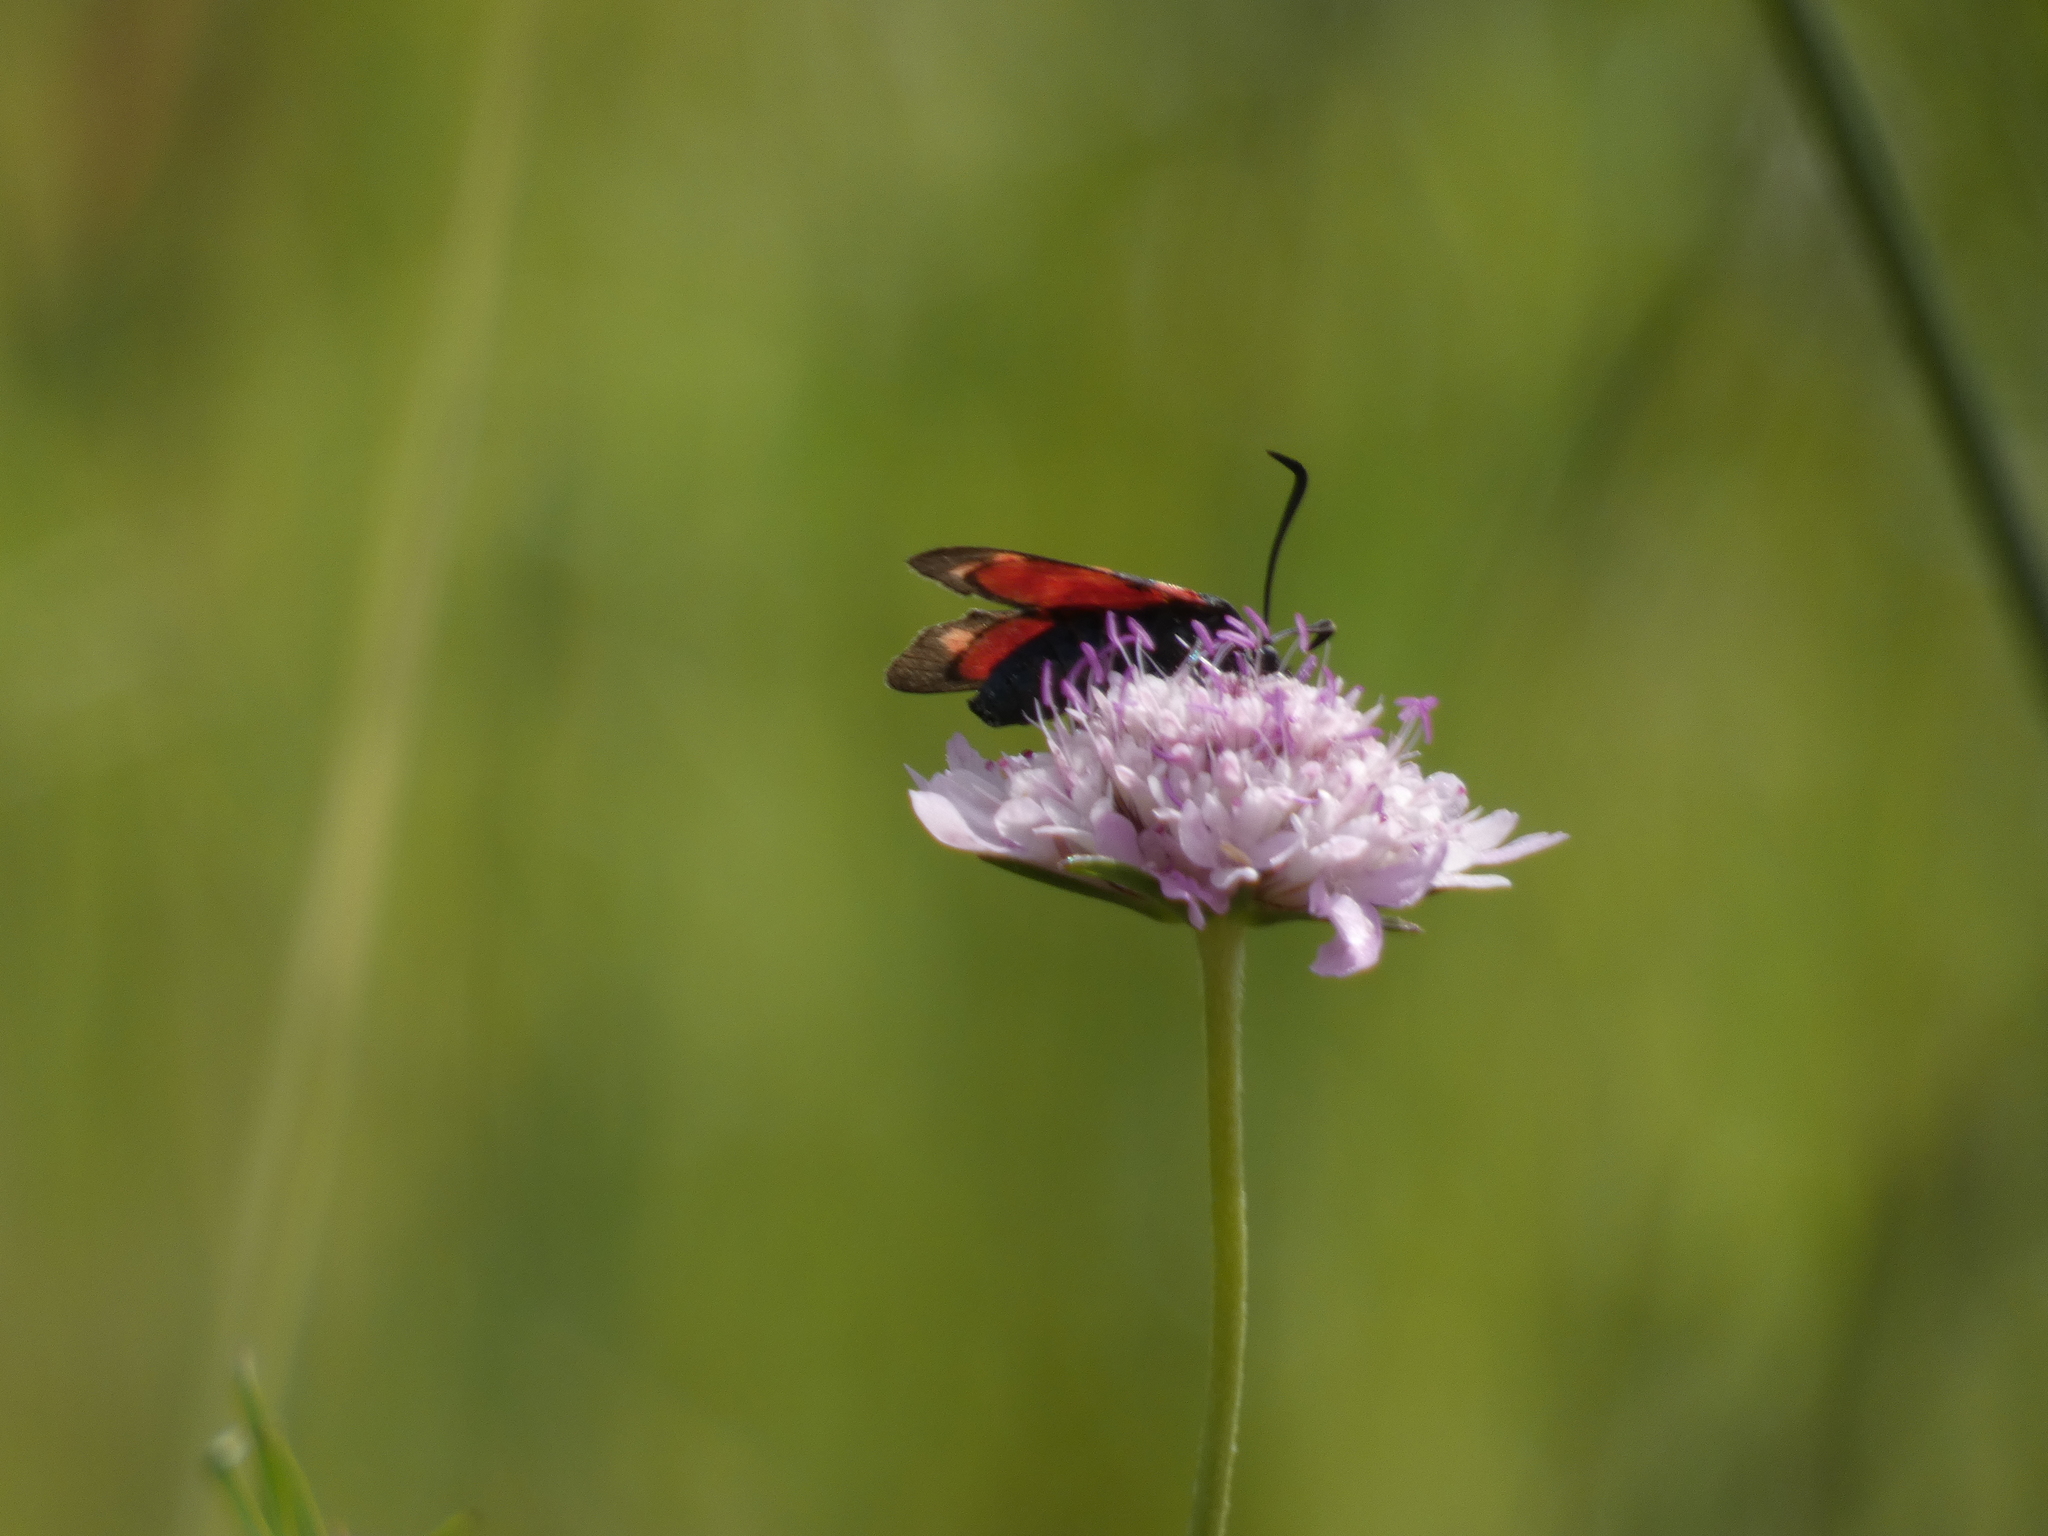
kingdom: Animalia
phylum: Arthropoda
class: Insecta
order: Lepidoptera
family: Zygaenidae
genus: Zygaena
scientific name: Zygaena transalpina
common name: Southern six spot burnet
